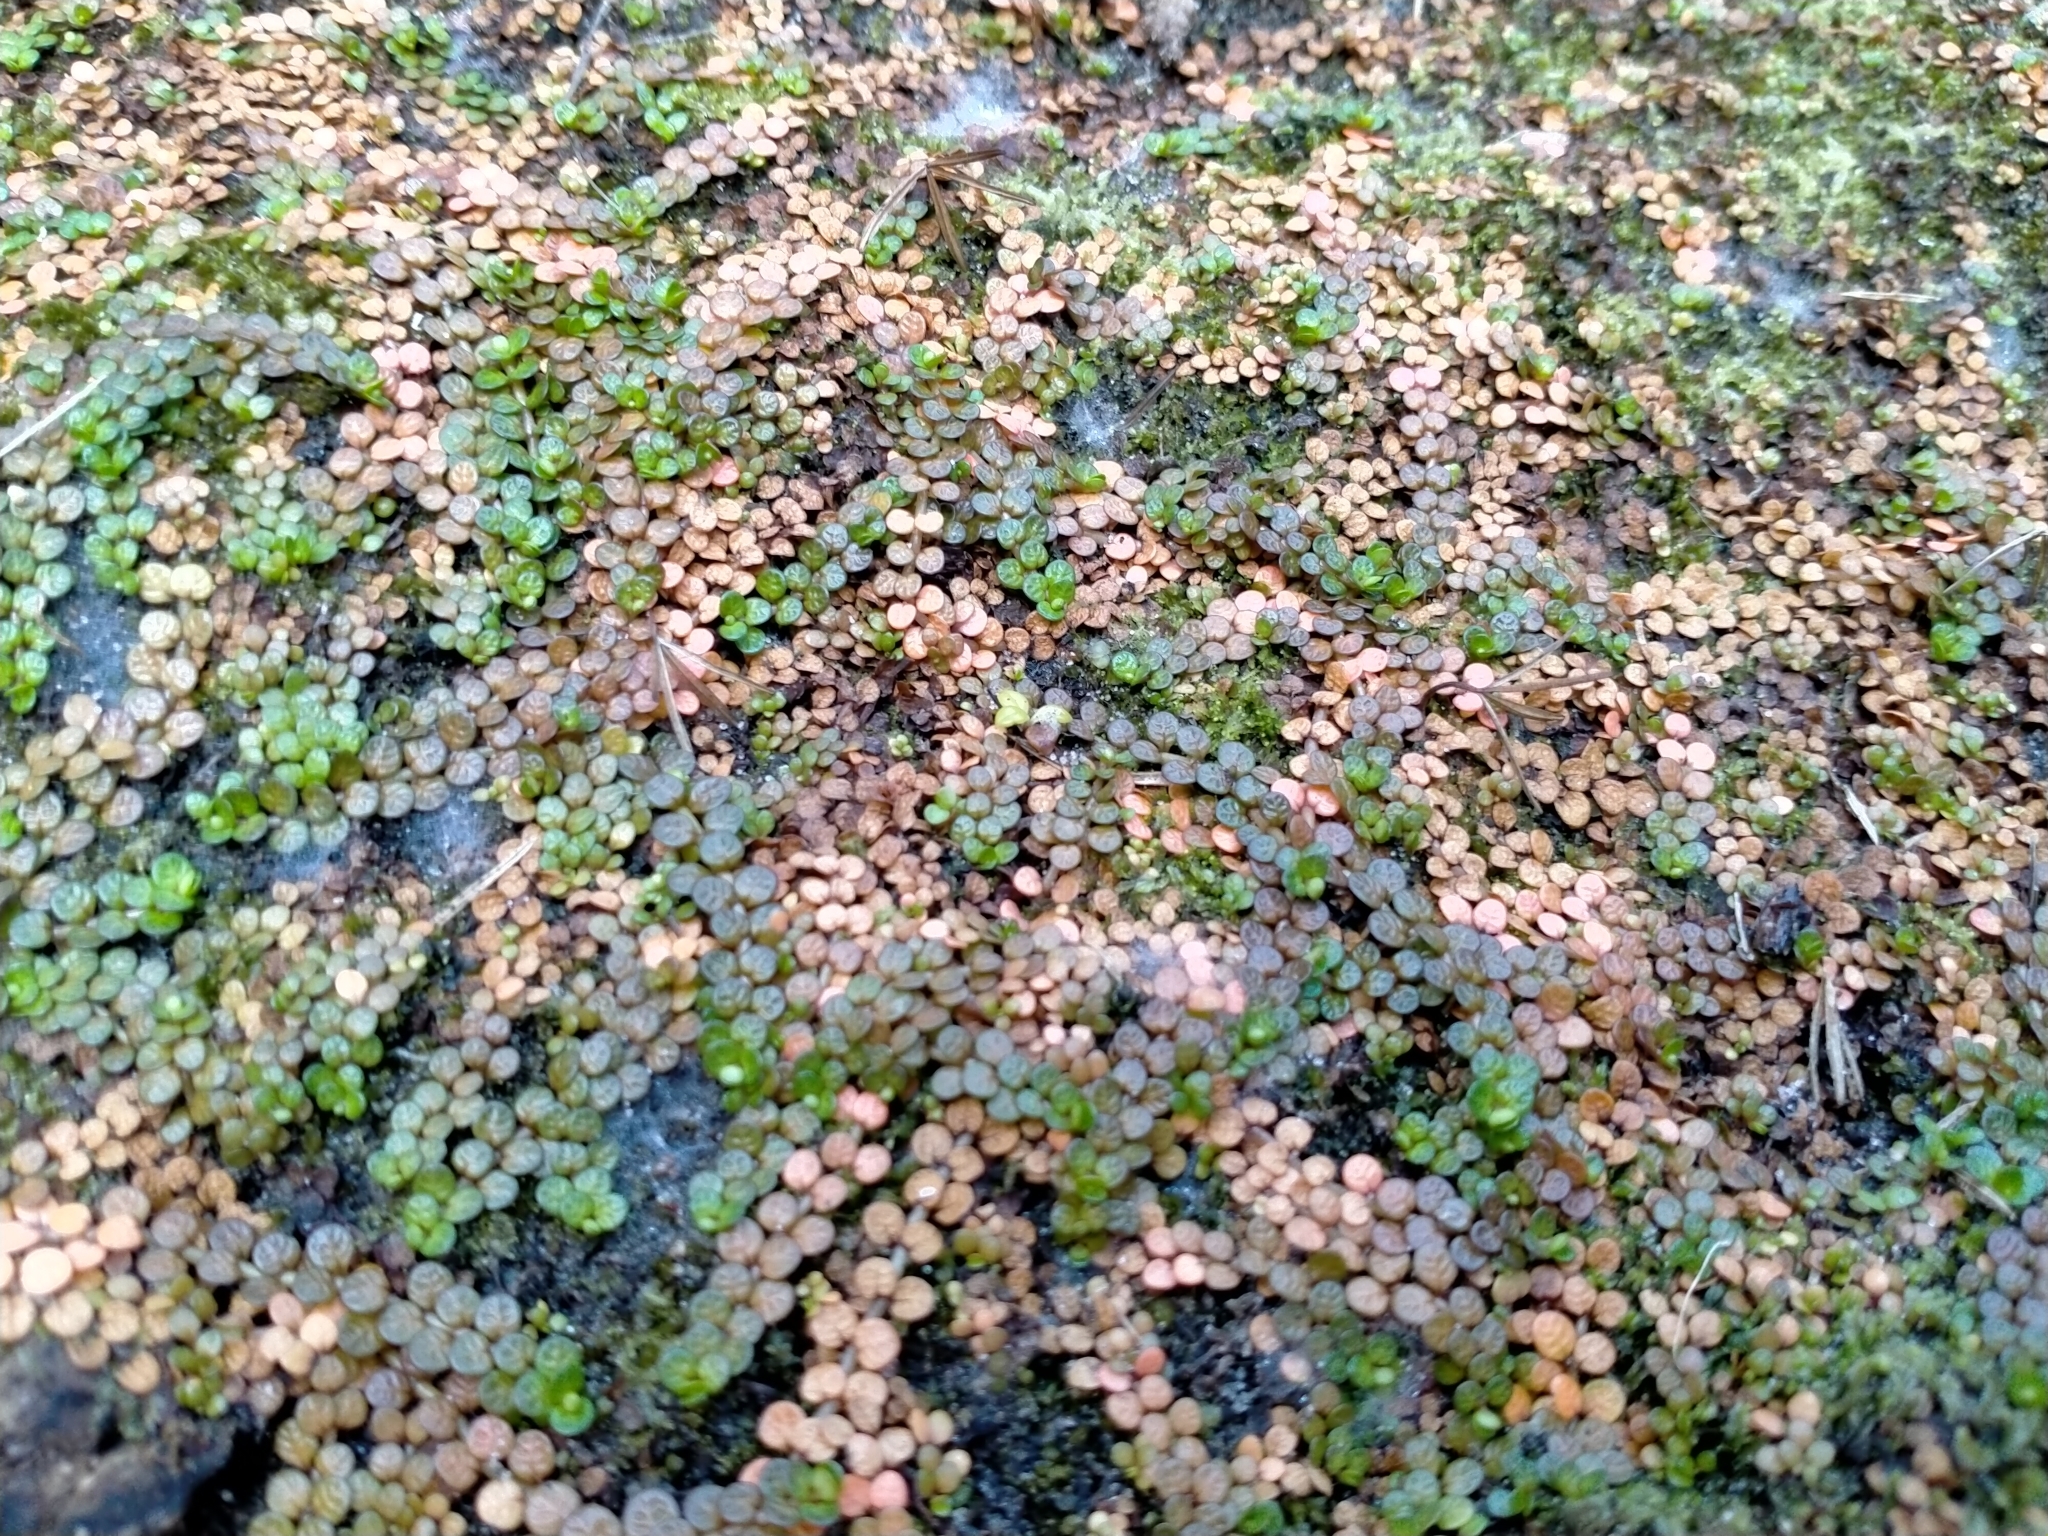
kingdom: Plantae
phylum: Tracheophyta
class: Magnoliopsida
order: Myrtales
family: Onagraceae
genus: Epilobium
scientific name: Epilobium komarovianum
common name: Bronzy willowherb
